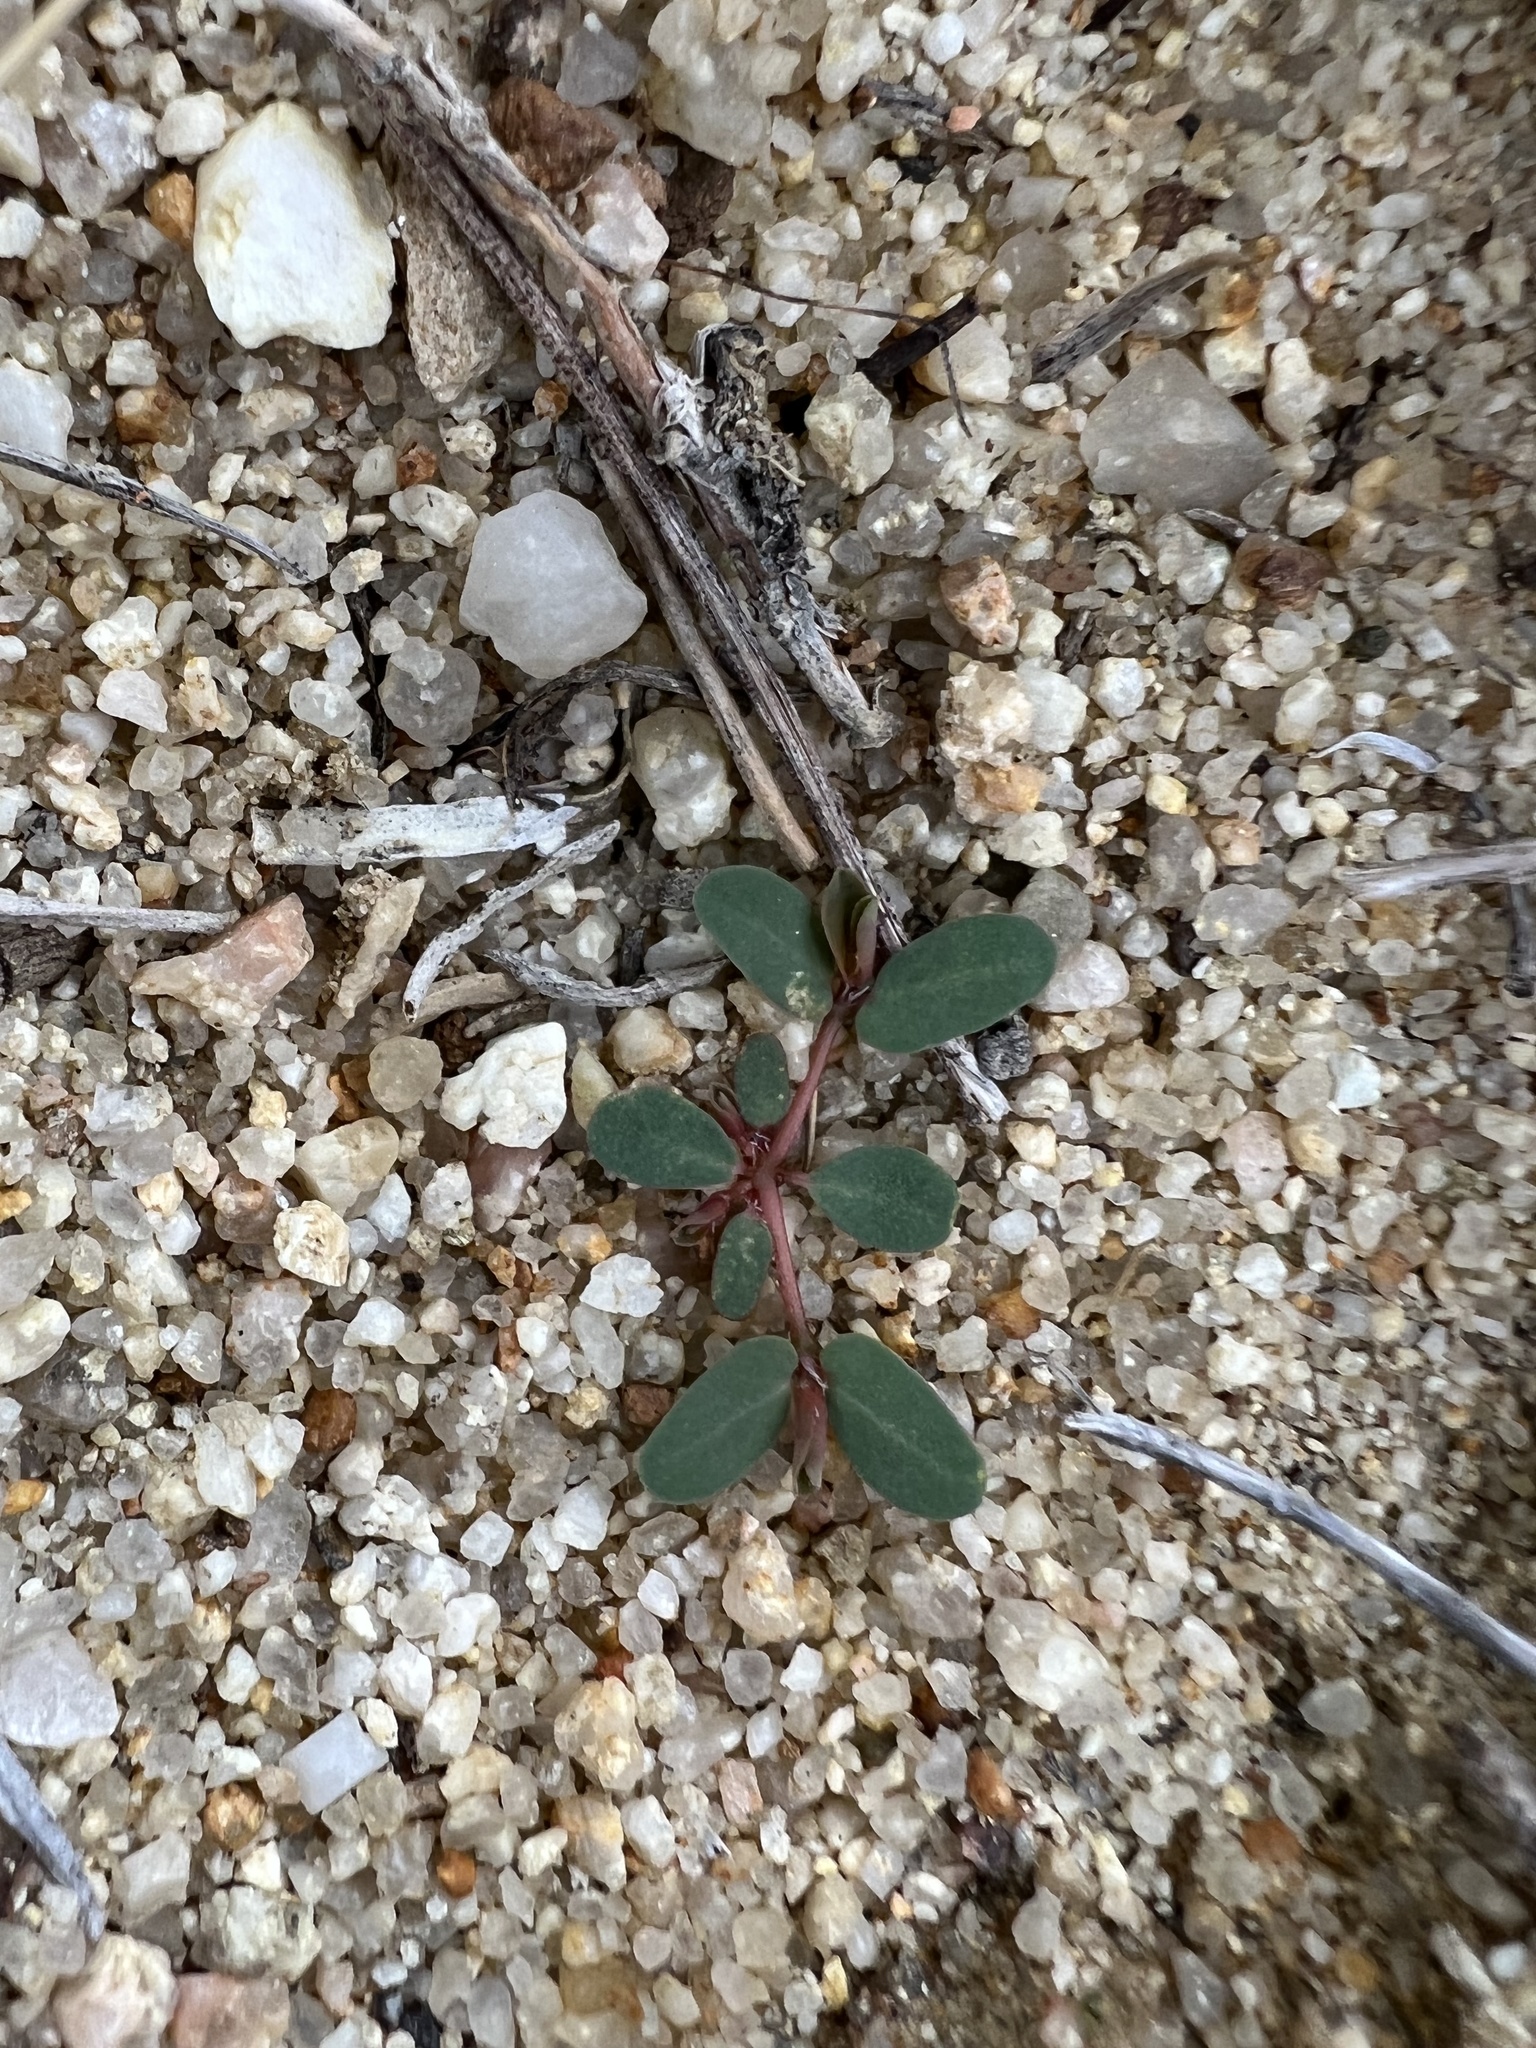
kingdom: Plantae
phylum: Tracheophyta
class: Magnoliopsida
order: Malpighiales
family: Euphorbiaceae
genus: Euphorbia
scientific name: Euphorbia glyptosperma
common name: Corrugate-seeded spurge
